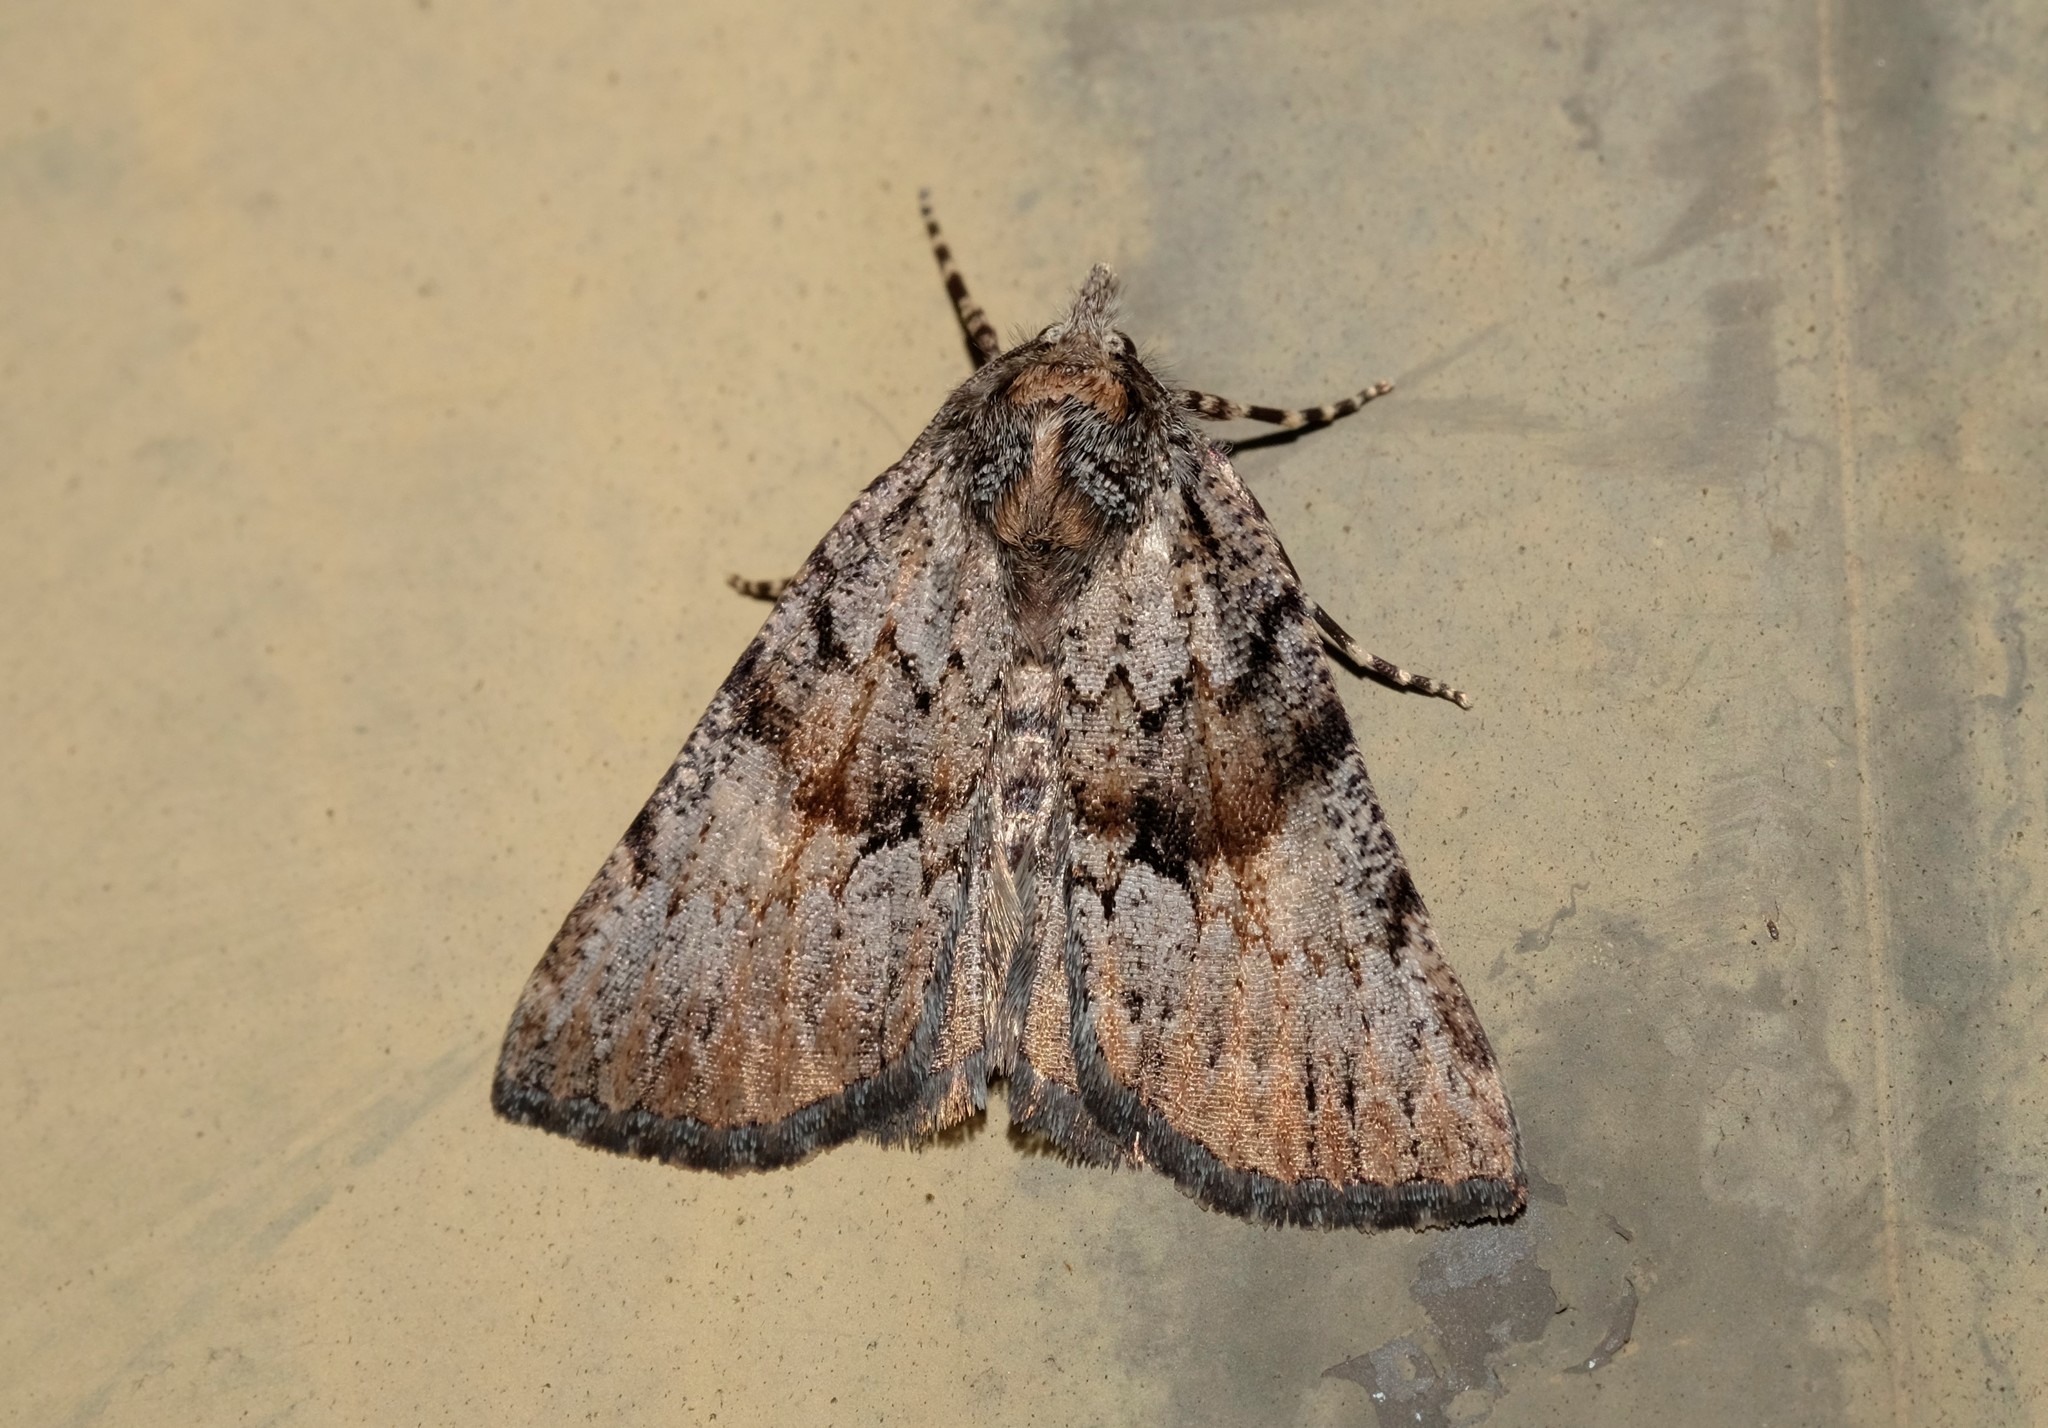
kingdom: Animalia
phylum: Arthropoda
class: Insecta
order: Lepidoptera
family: Geometridae
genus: Smyriodes
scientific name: Smyriodes
